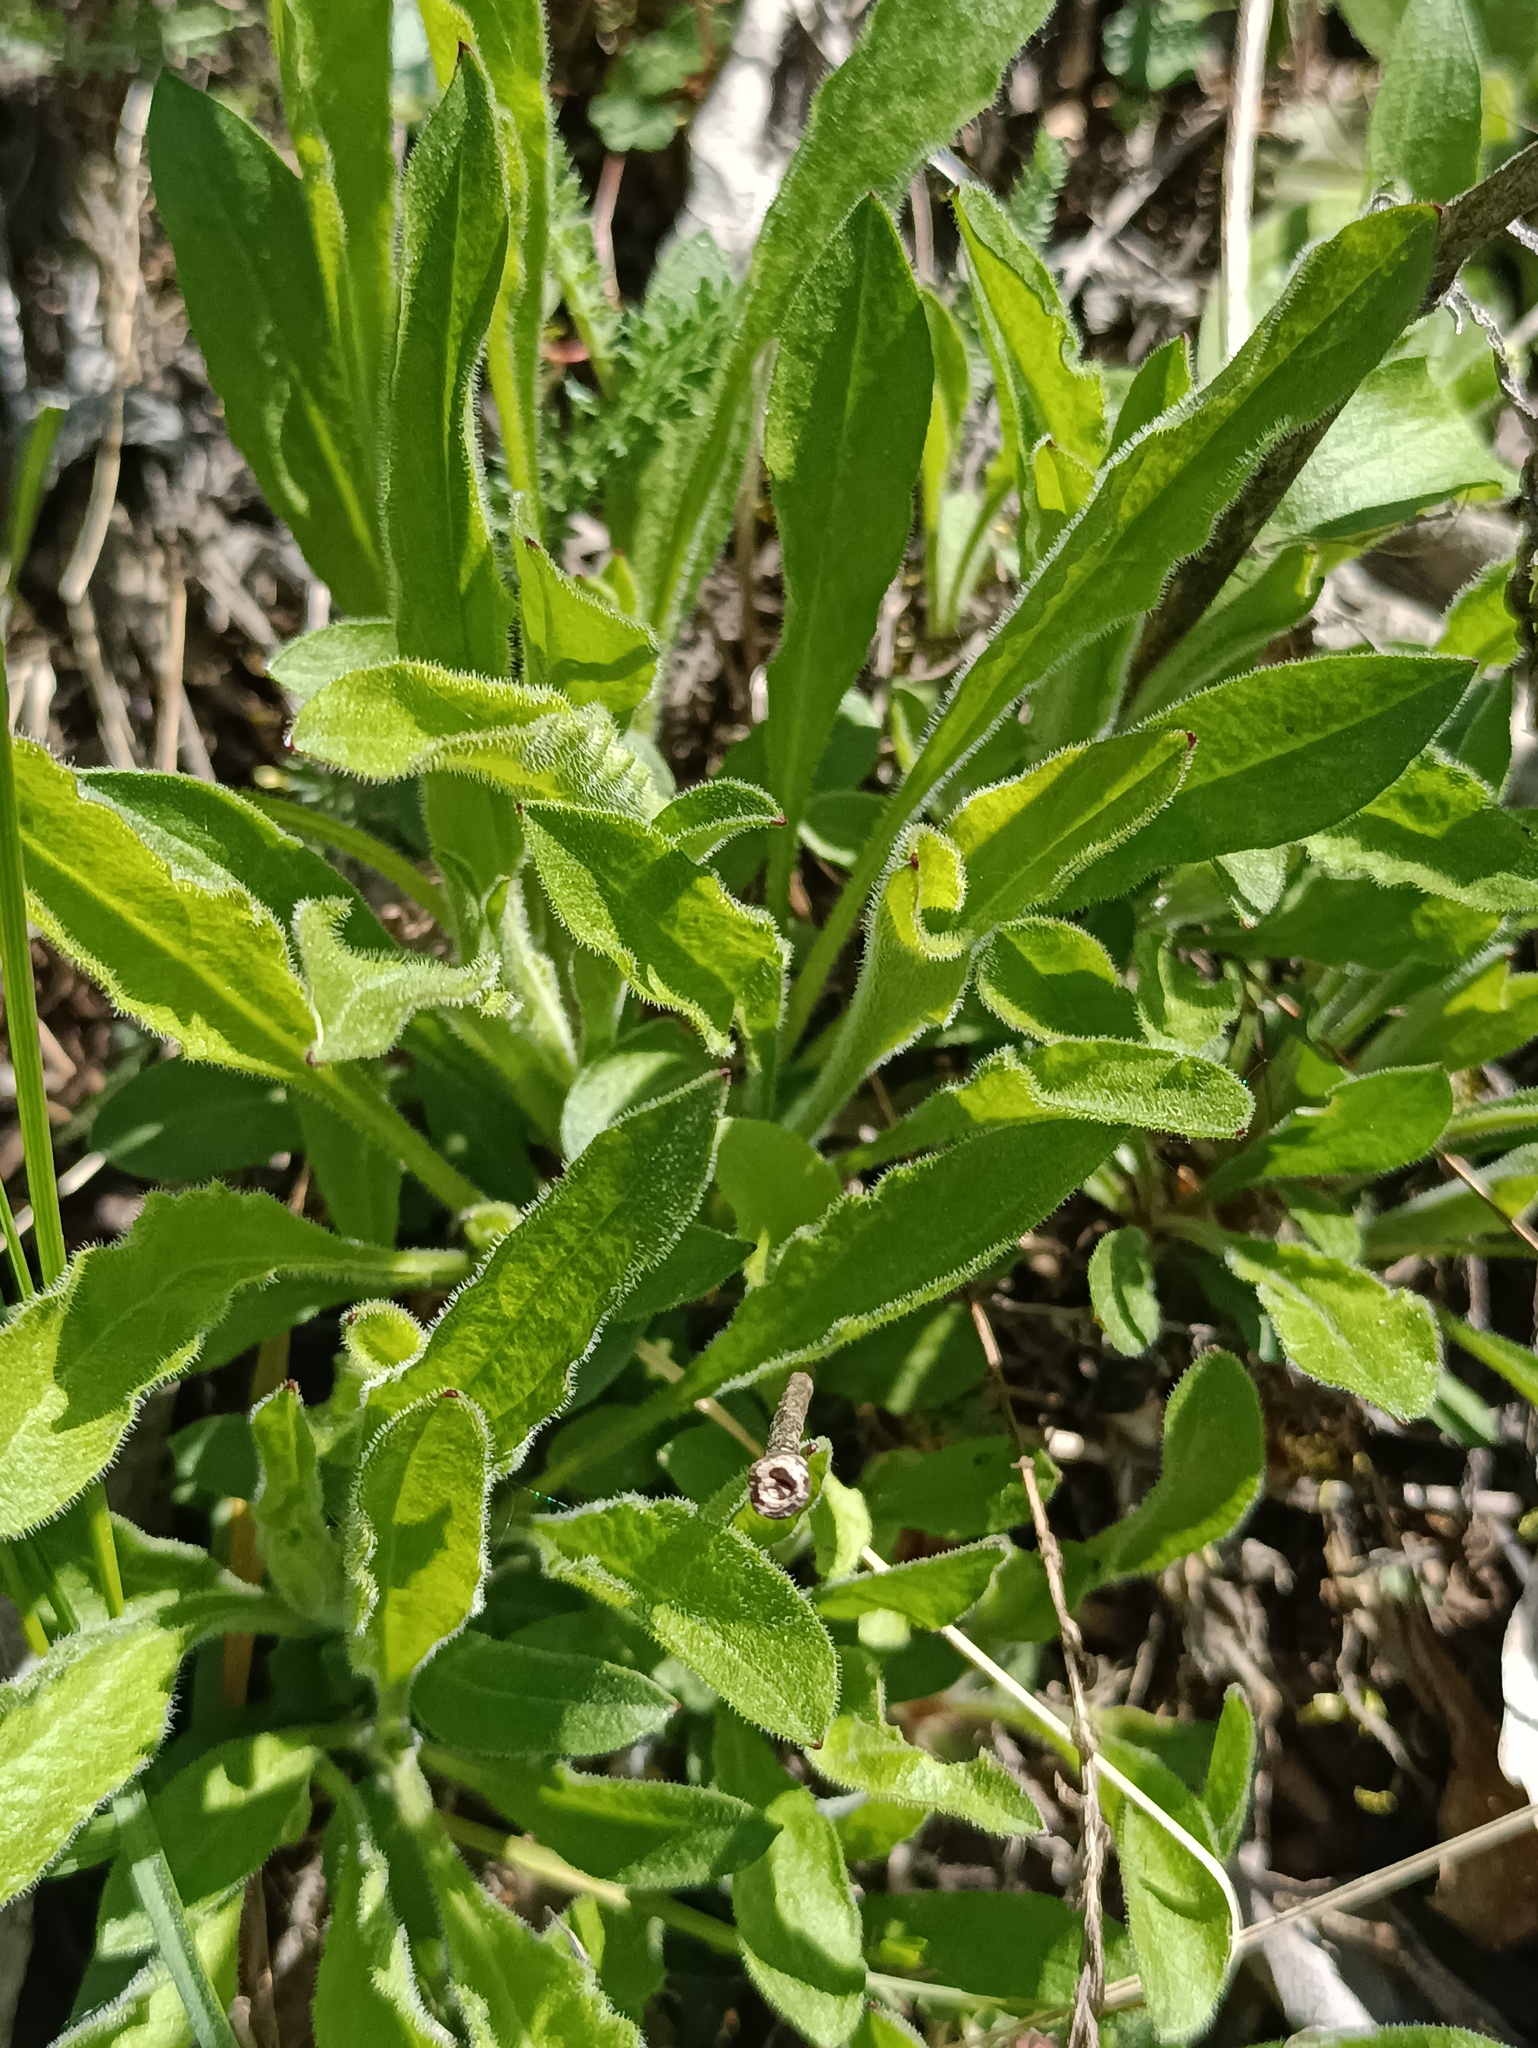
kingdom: Plantae
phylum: Tracheophyta
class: Magnoliopsida
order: Caryophyllales
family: Caryophyllaceae
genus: Silene
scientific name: Silene nutans
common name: Nottingham catchfly
